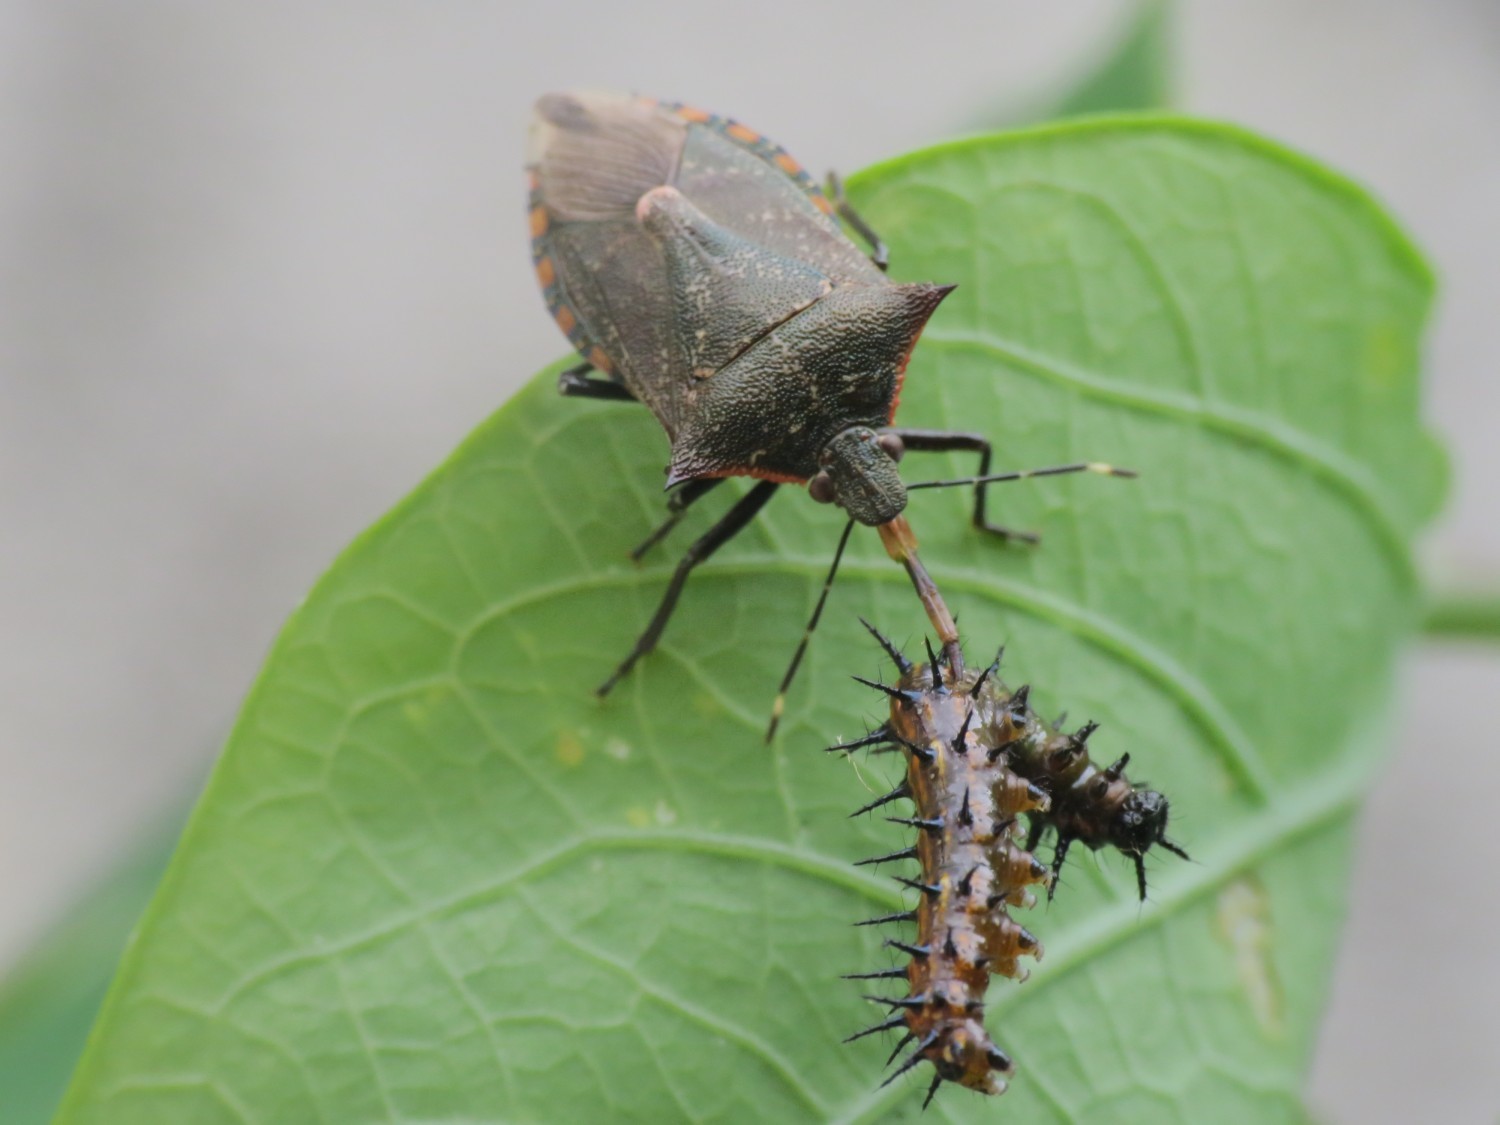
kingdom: Animalia
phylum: Arthropoda
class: Insecta
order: Hemiptera
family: Pentatomidae
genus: Podisus
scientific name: Podisus nigrispinus
